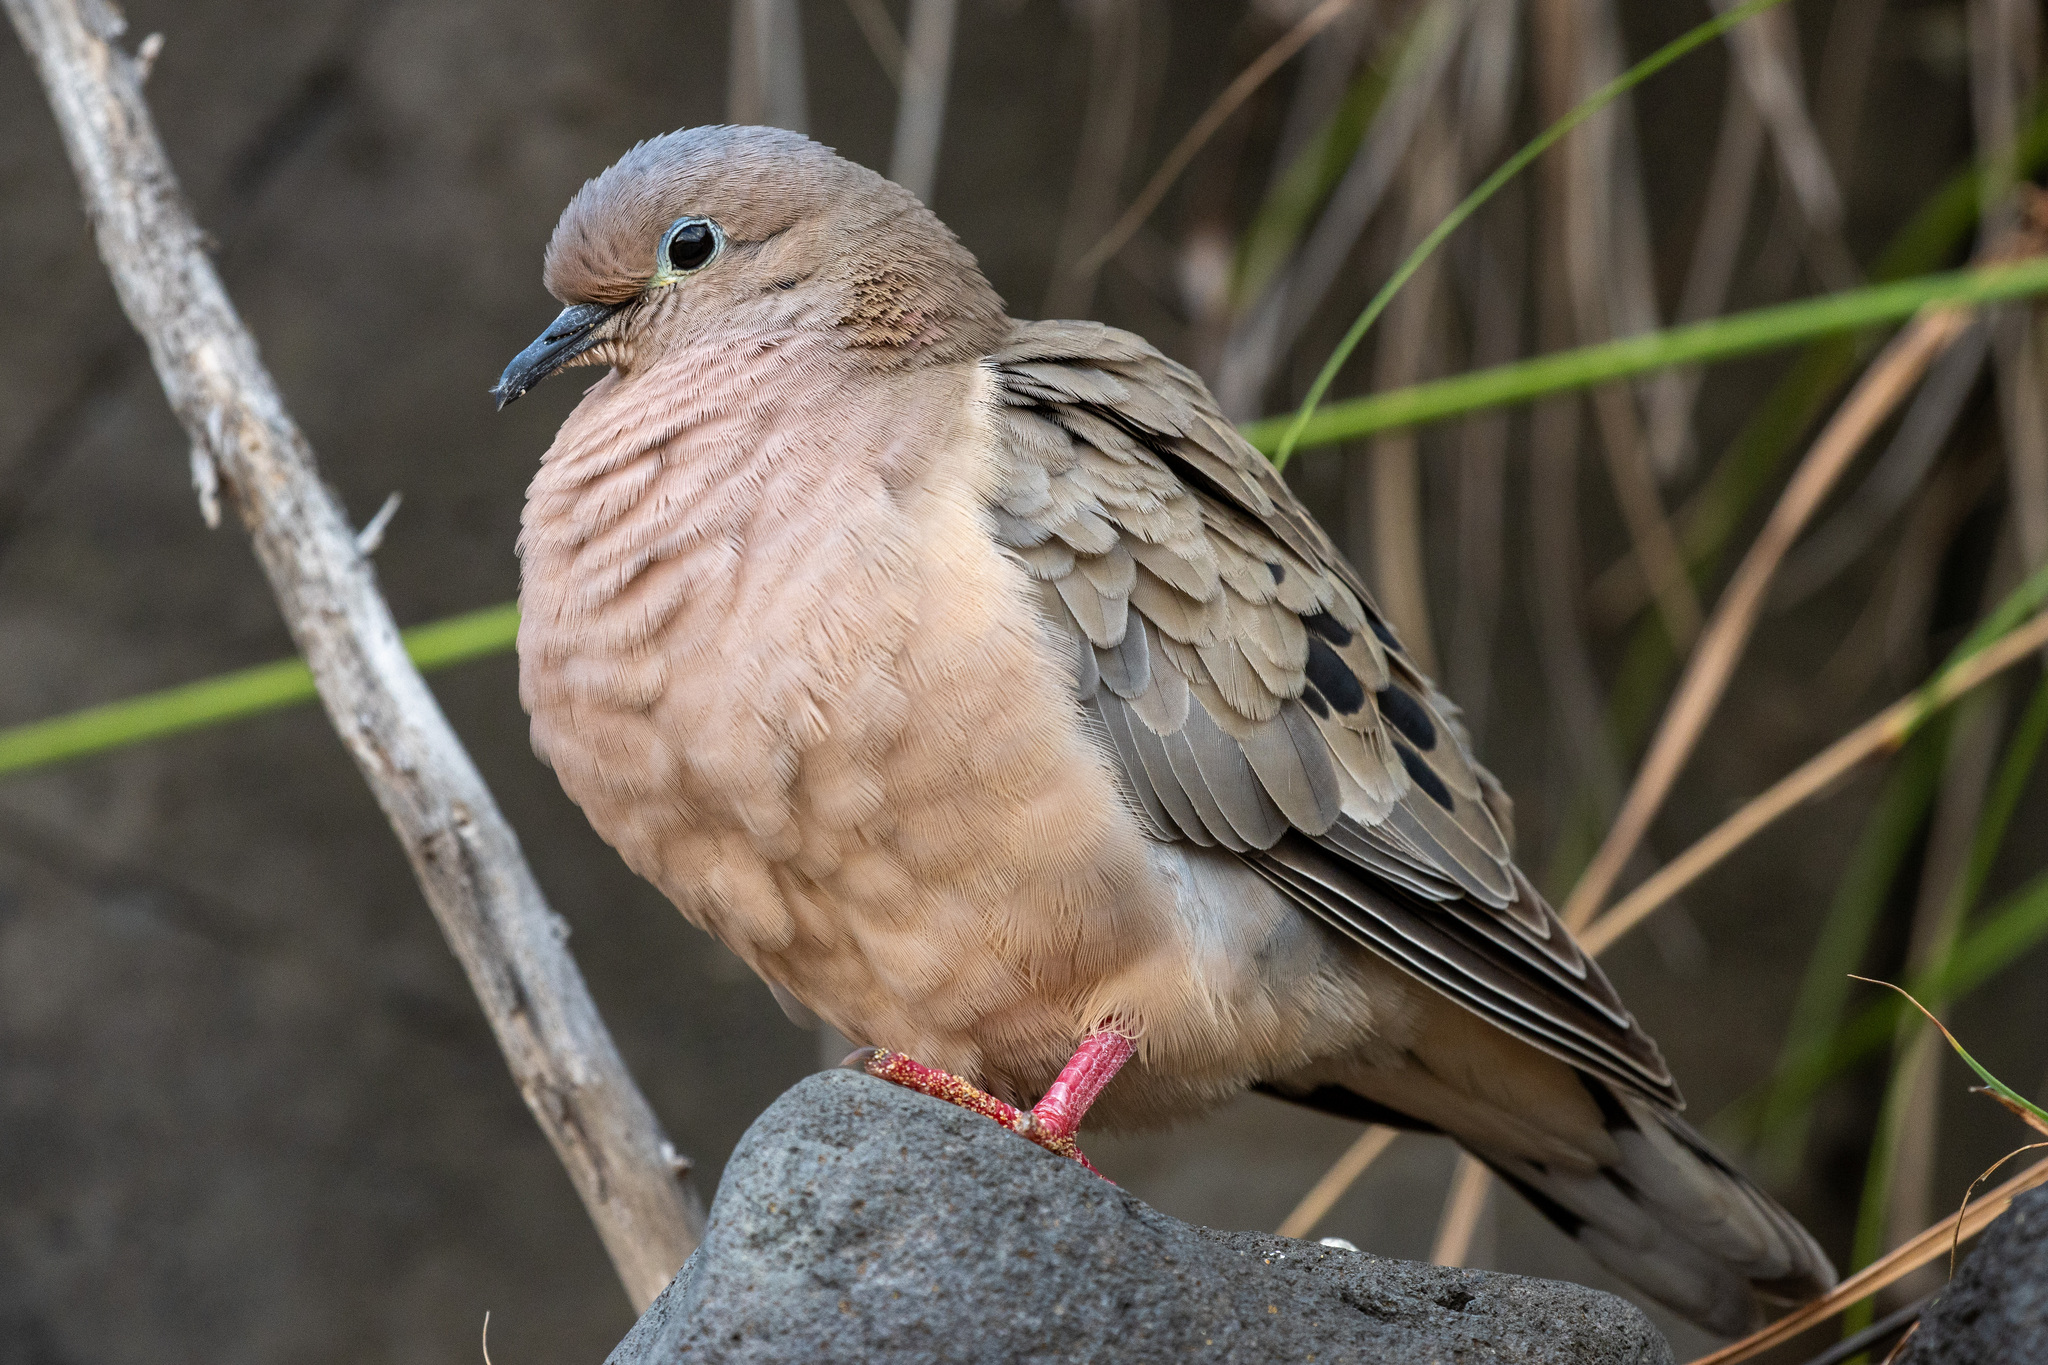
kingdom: Animalia
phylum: Chordata
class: Aves
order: Columbiformes
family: Columbidae
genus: Zenaida
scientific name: Zenaida auriculata
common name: Eared dove
